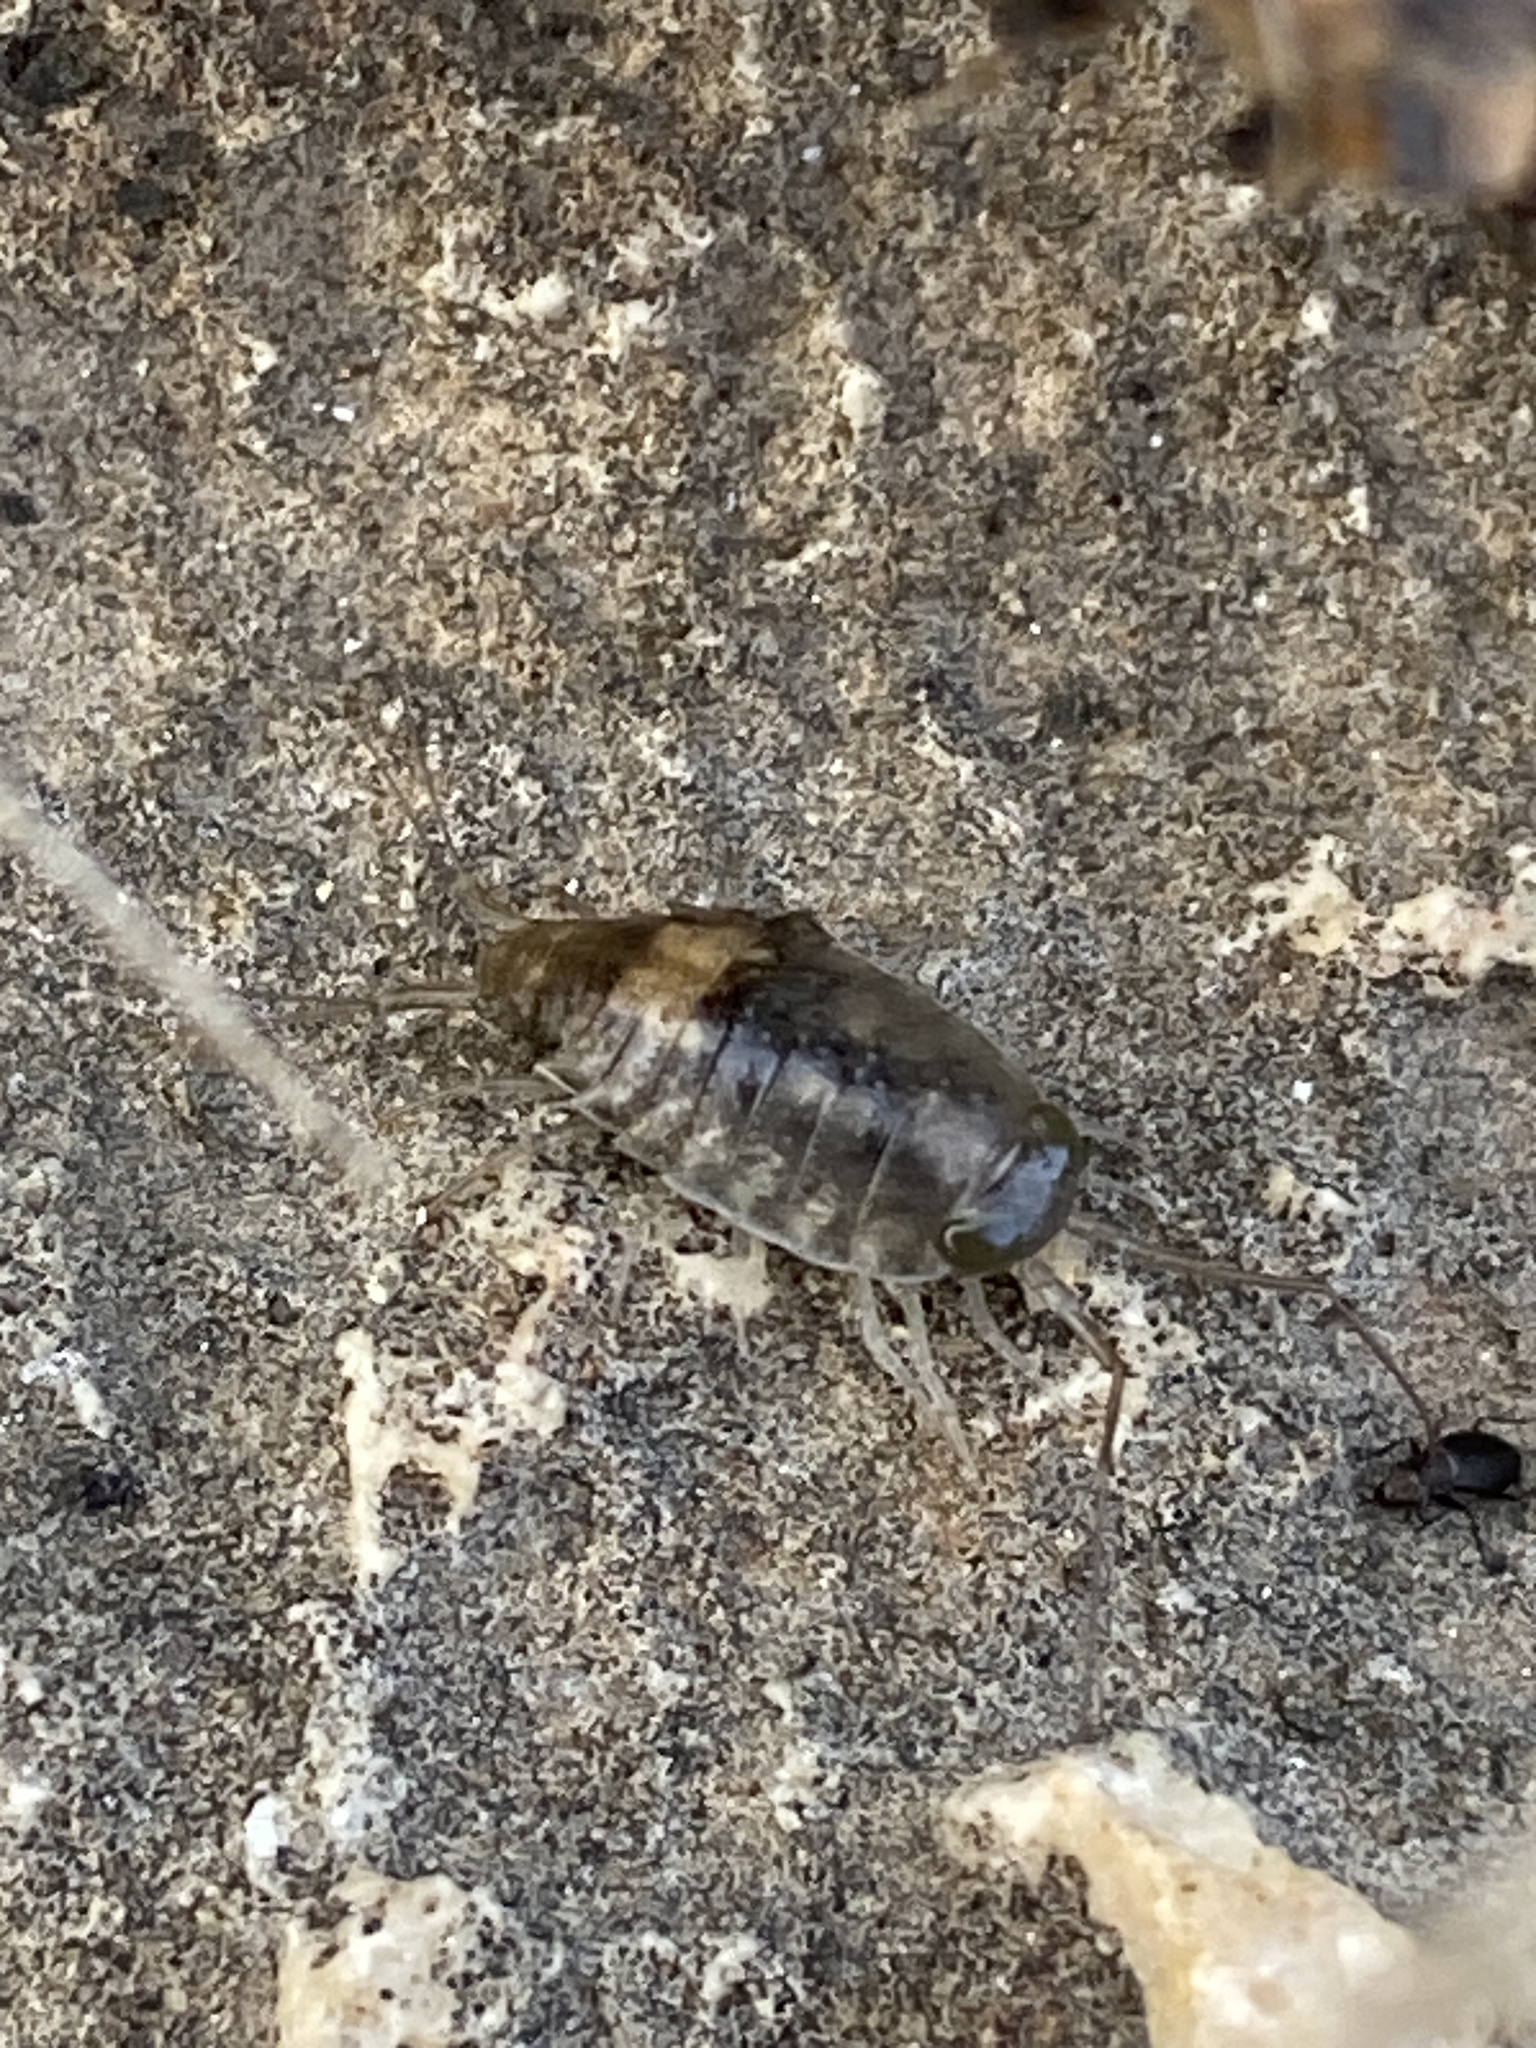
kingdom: Animalia
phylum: Arthropoda
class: Malacostraca
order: Isopoda
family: Ligiidae
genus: Ligia
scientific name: Ligia italica
